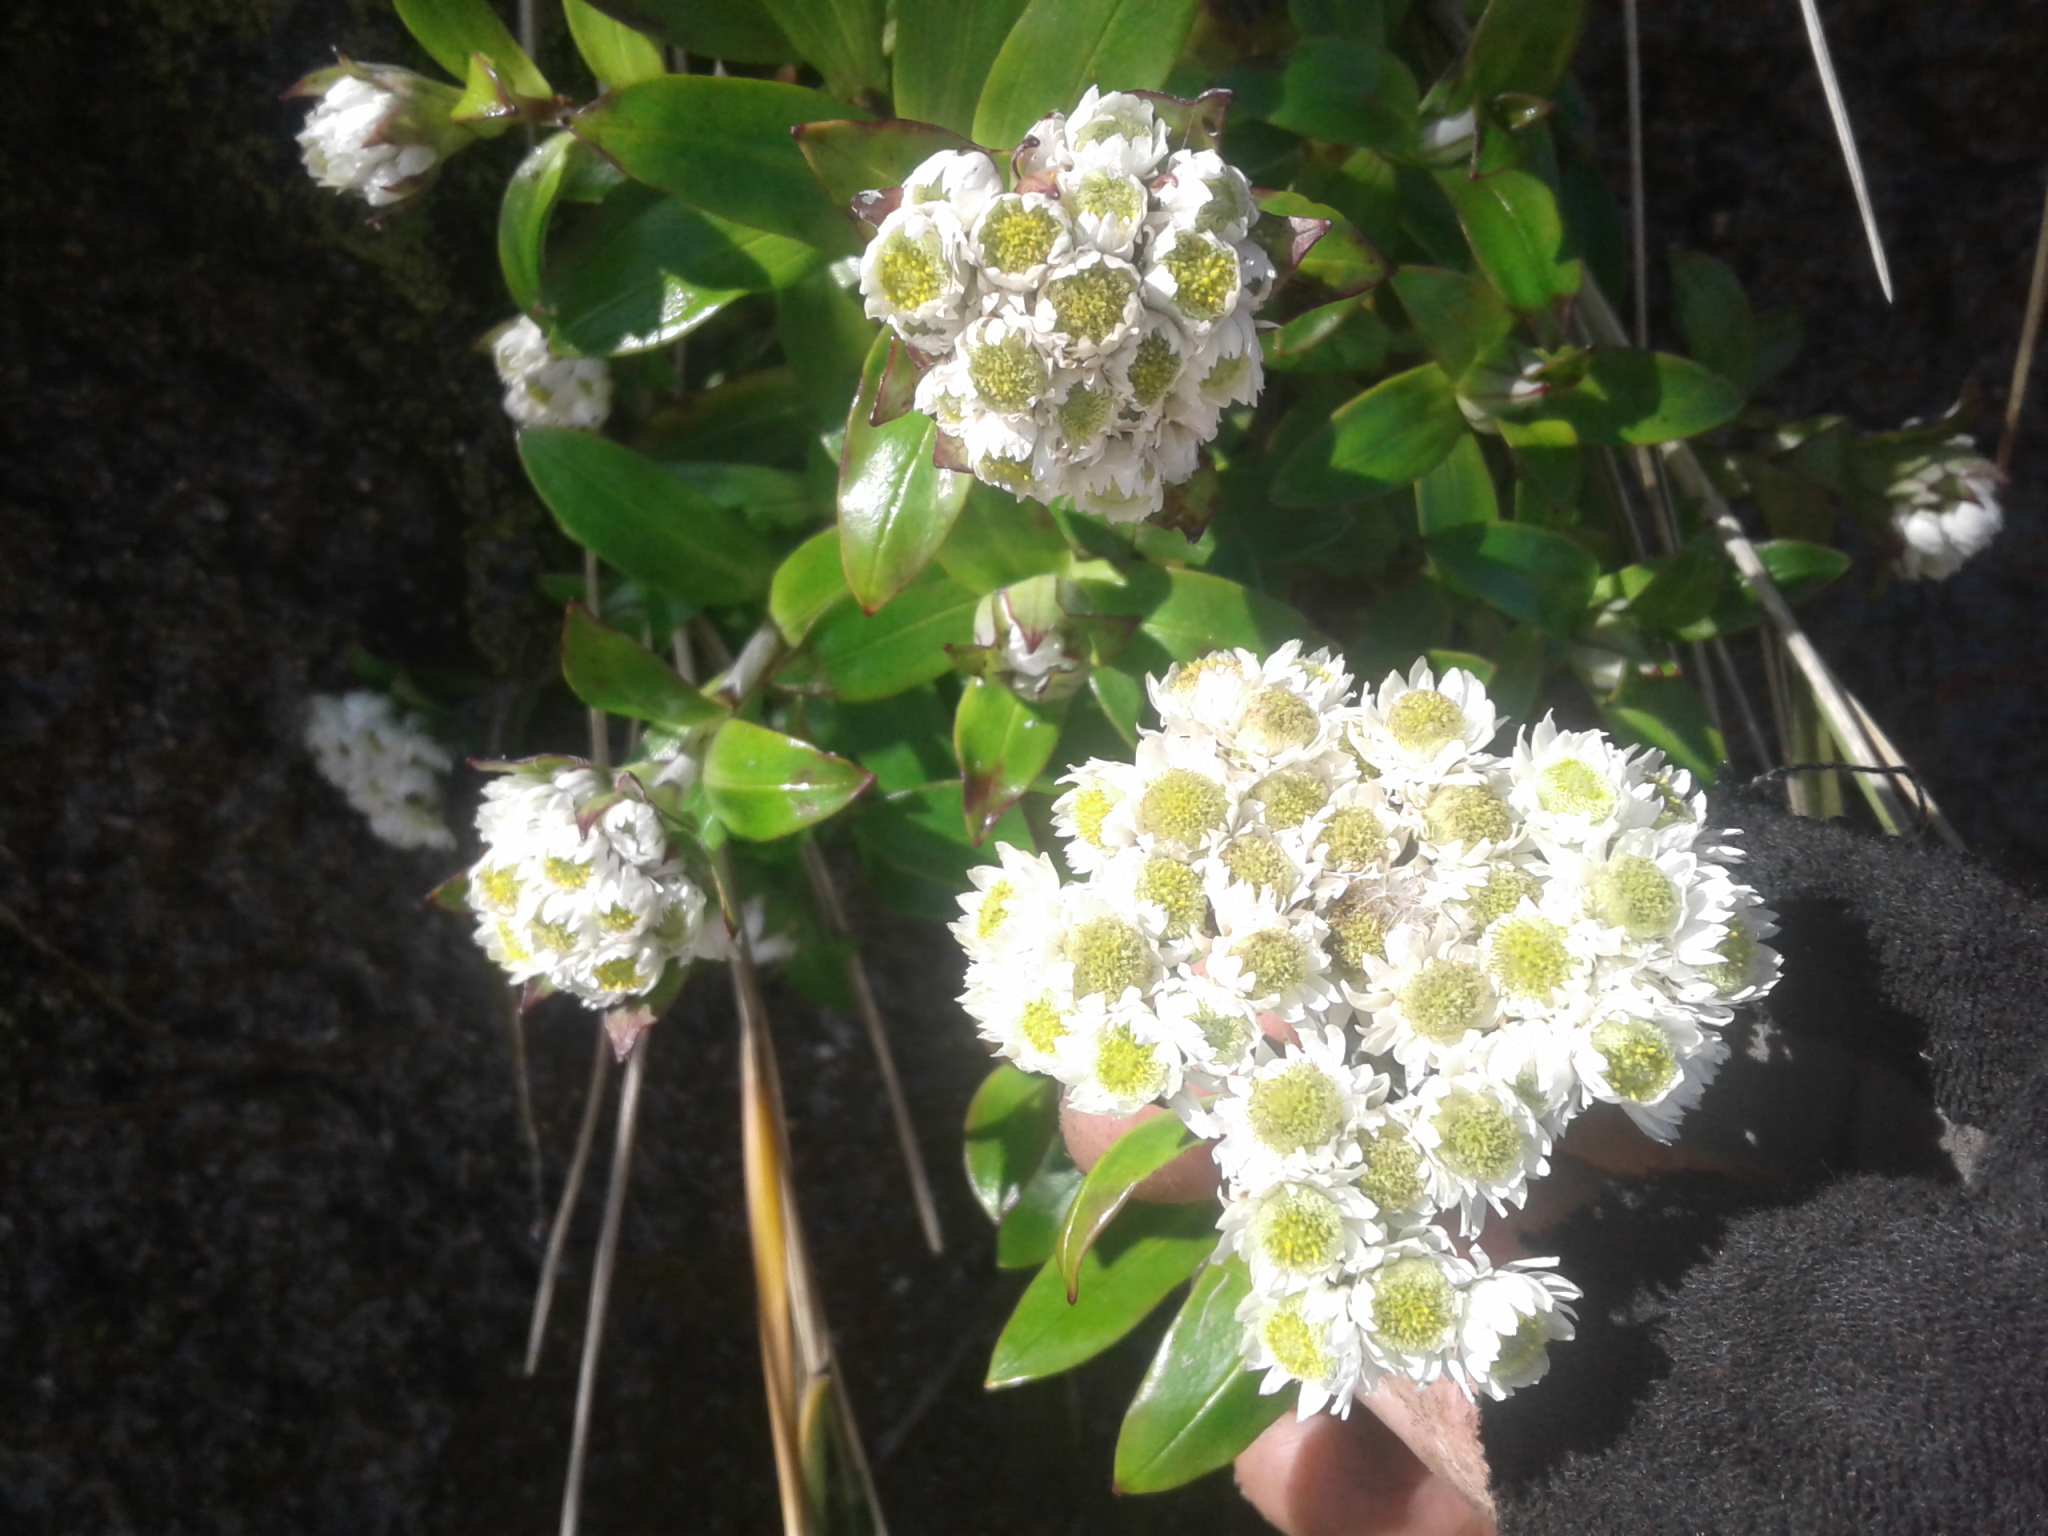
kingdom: Plantae
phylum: Tracheophyta
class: Magnoliopsida
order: Asterales
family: Asteraceae
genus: Anaphalioides
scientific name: Anaphalioides trinervis
